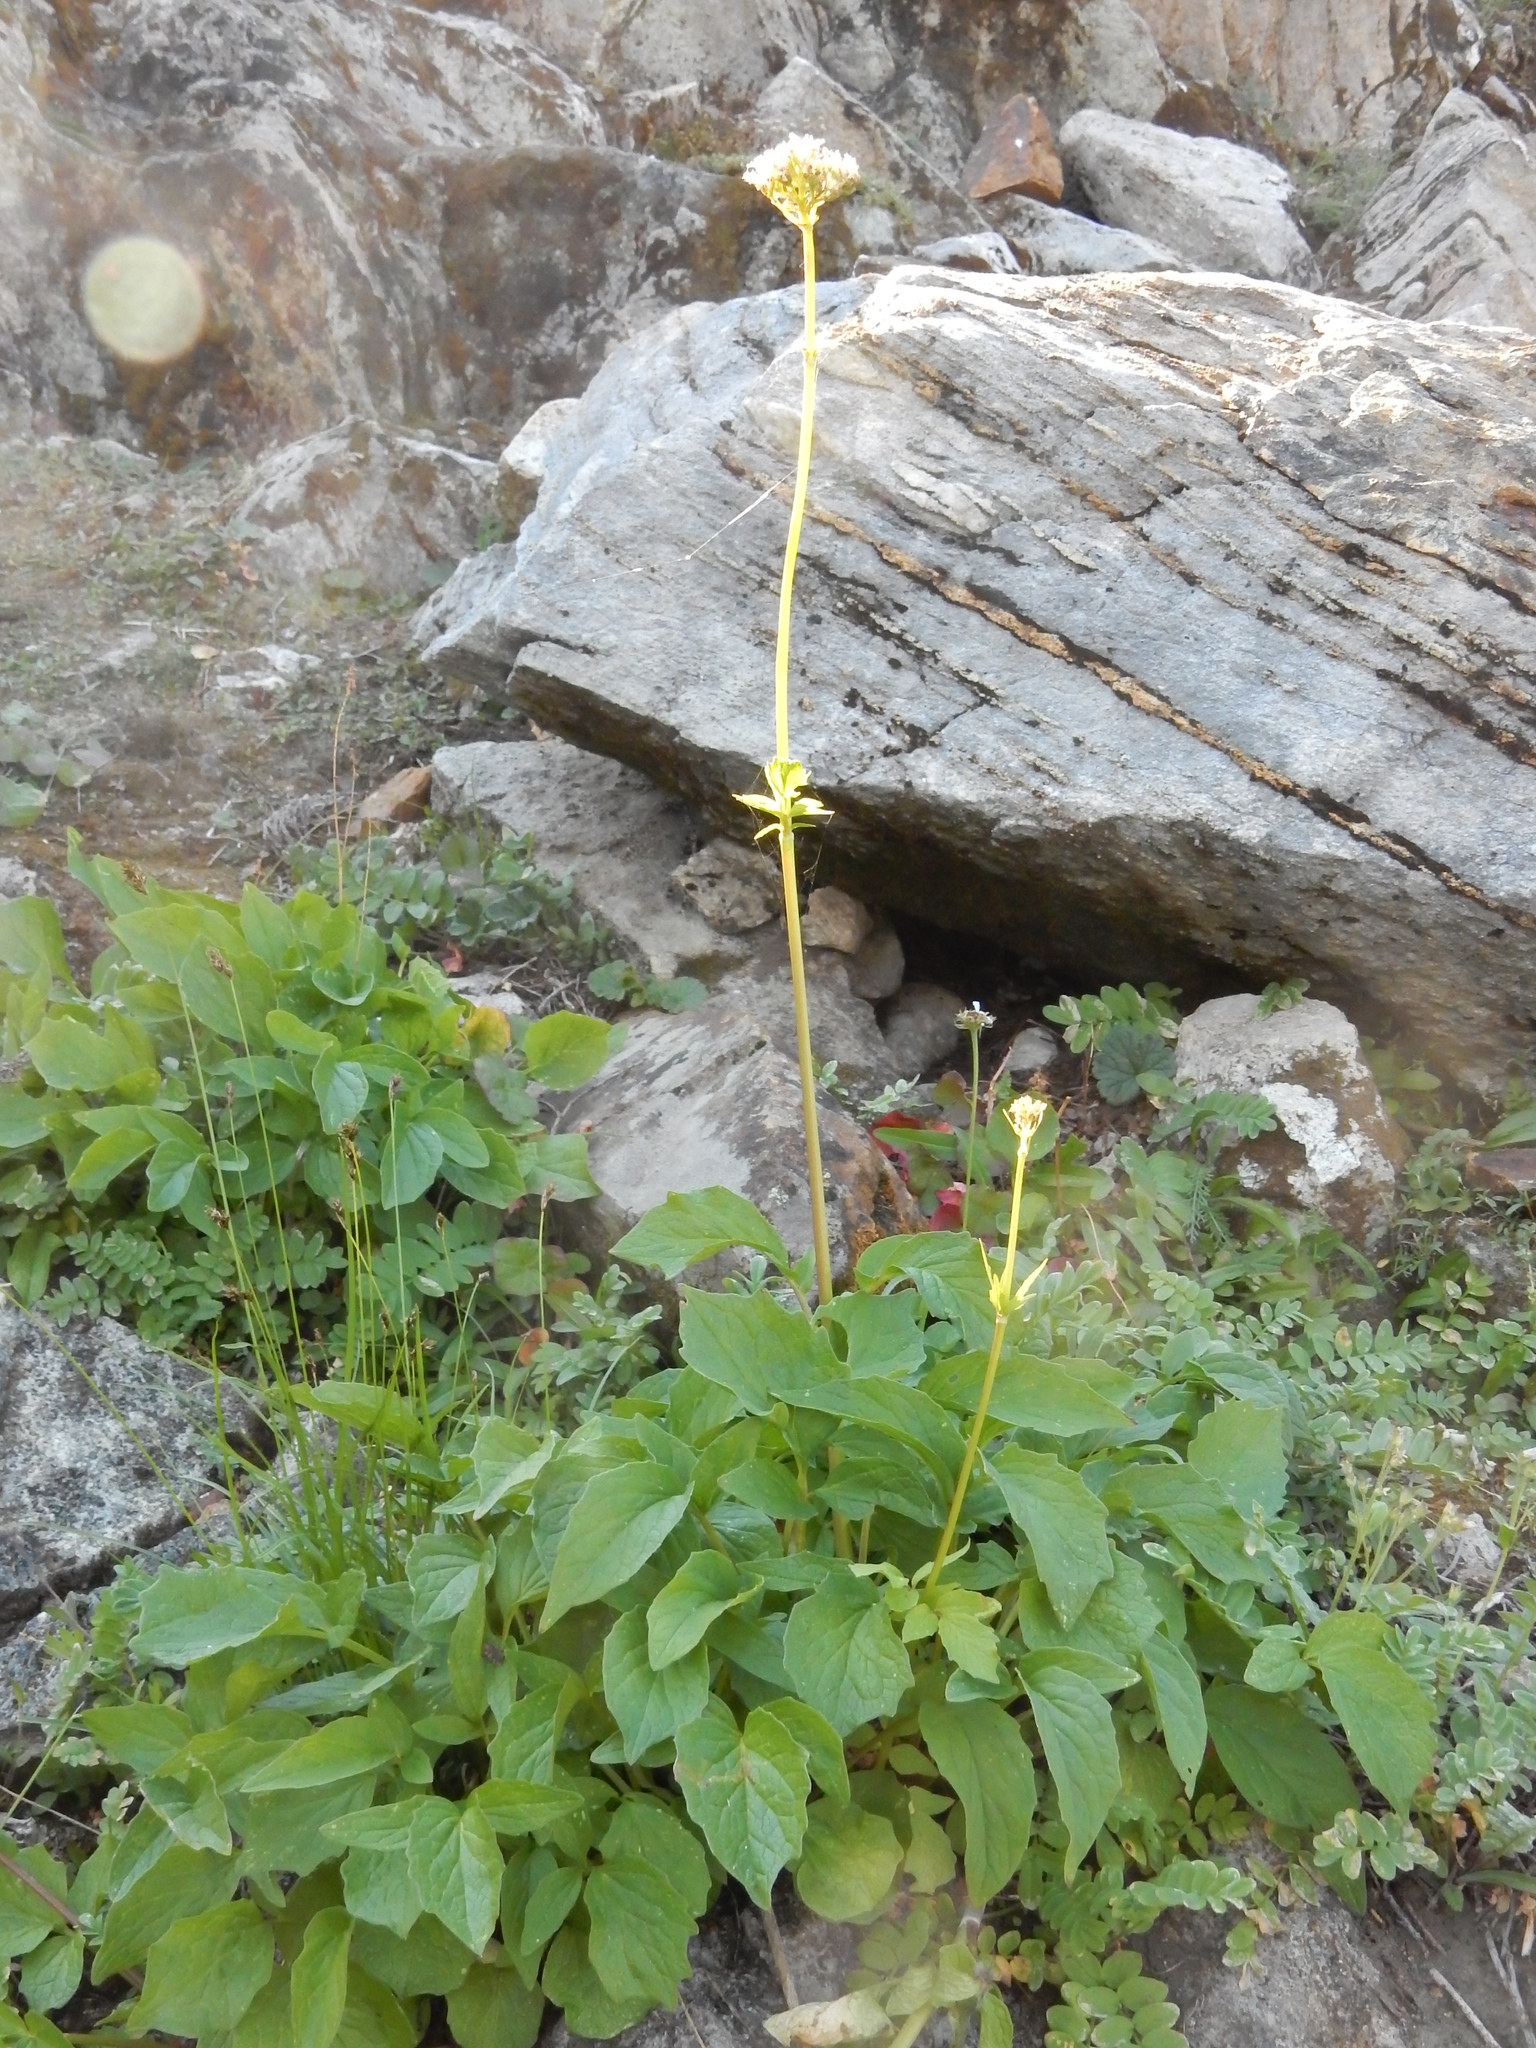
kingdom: Plantae
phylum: Tracheophyta
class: Magnoliopsida
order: Dipsacales
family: Caprifoliaceae
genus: Valeriana
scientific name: Valeriana sitchensis
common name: Pacific valerian
